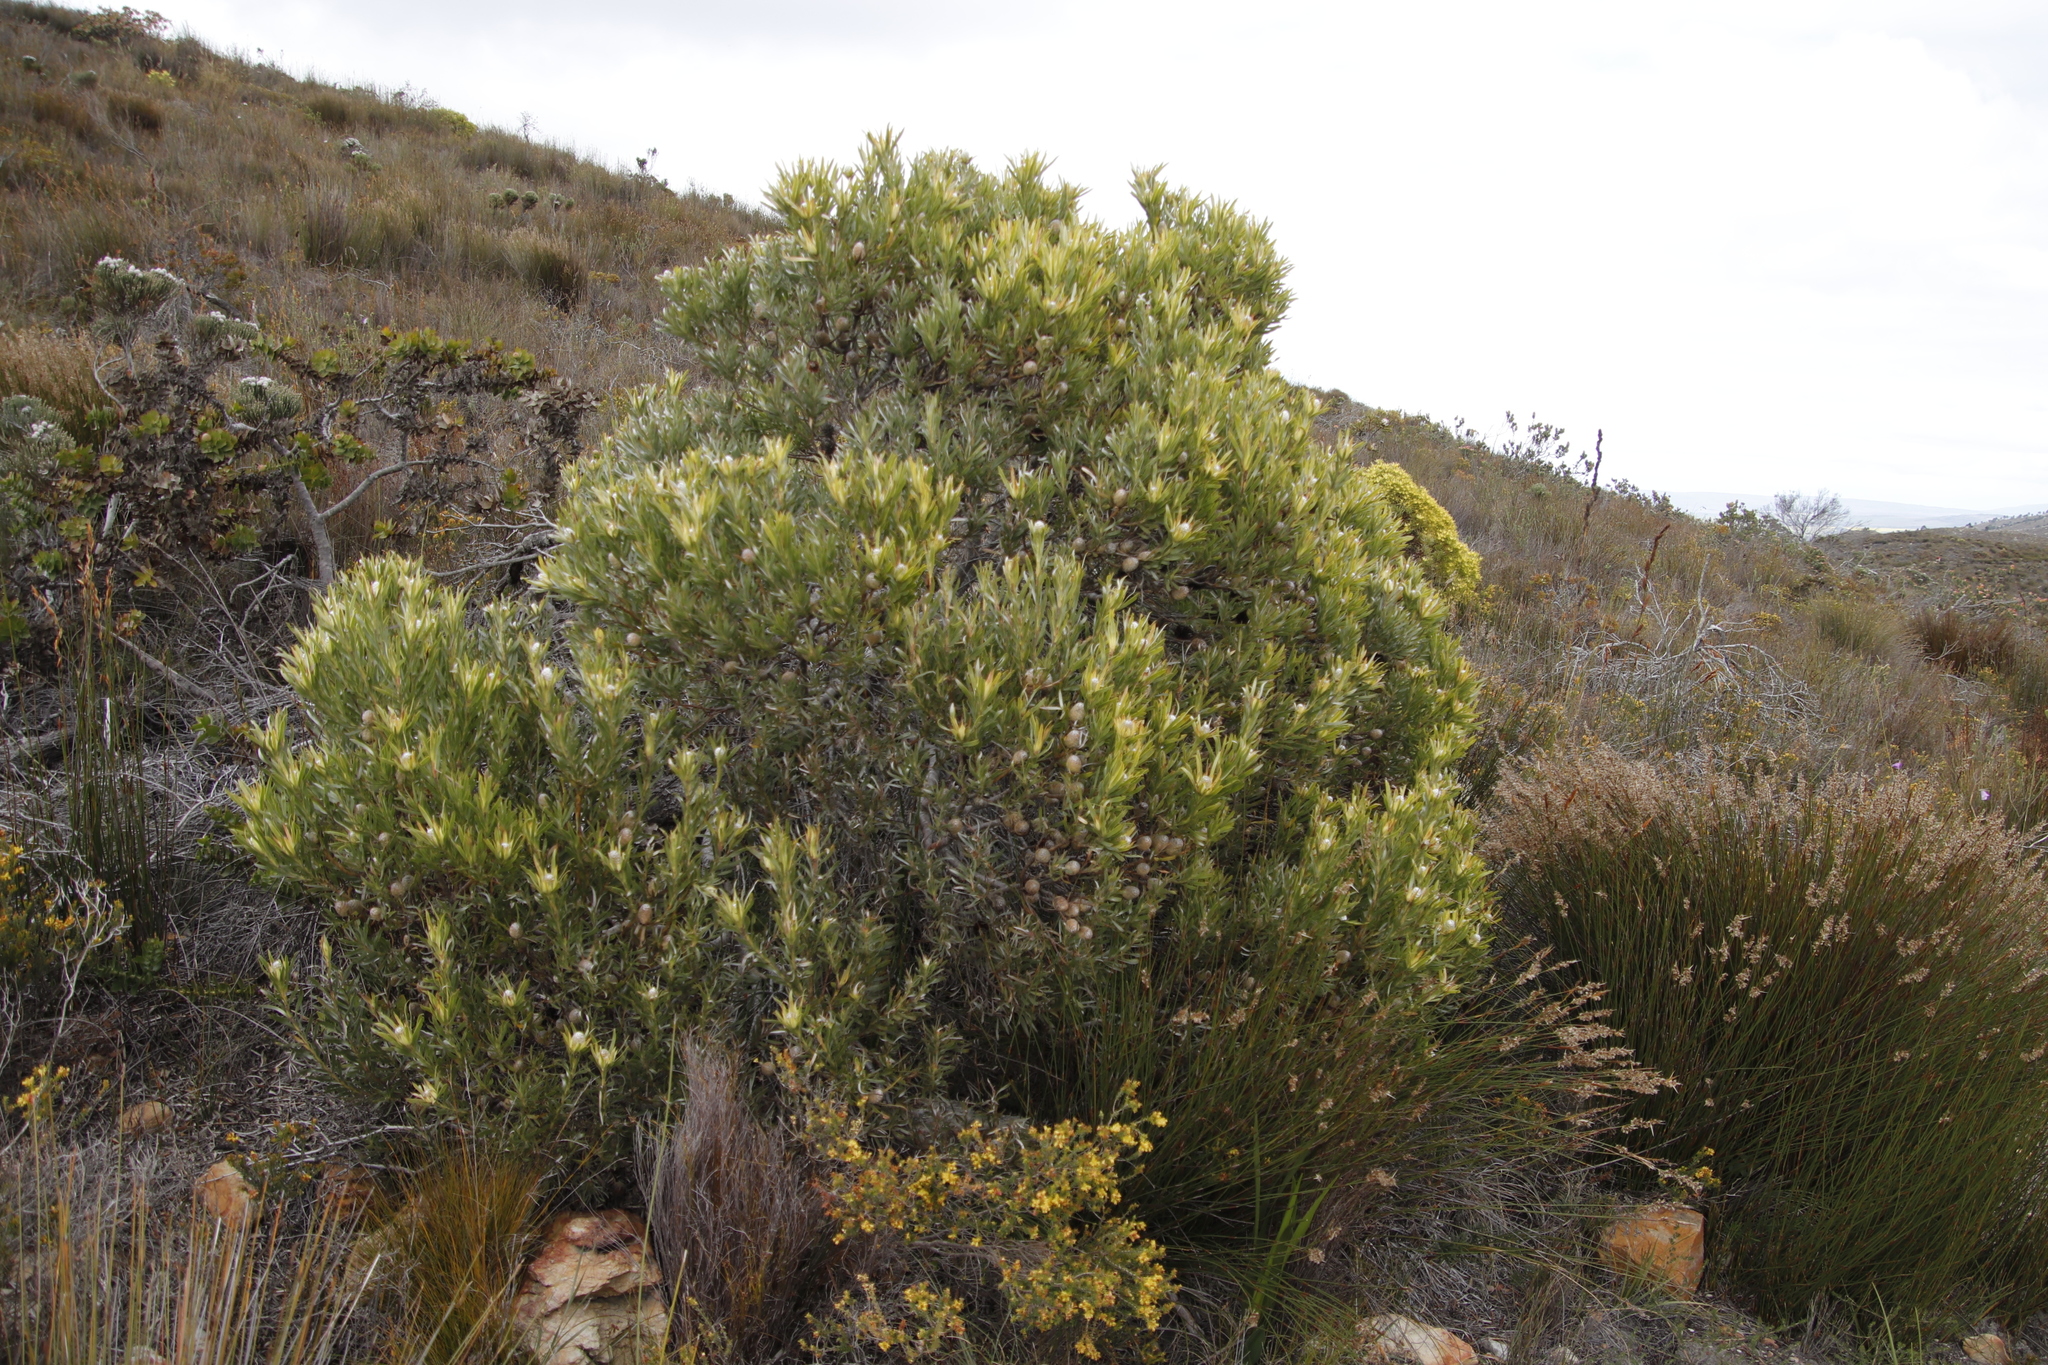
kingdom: Plantae
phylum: Tracheophyta
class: Magnoliopsida
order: Proteales
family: Proteaceae
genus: Leucadendron
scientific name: Leucadendron xanthoconus
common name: Sickle-leaf conebush
